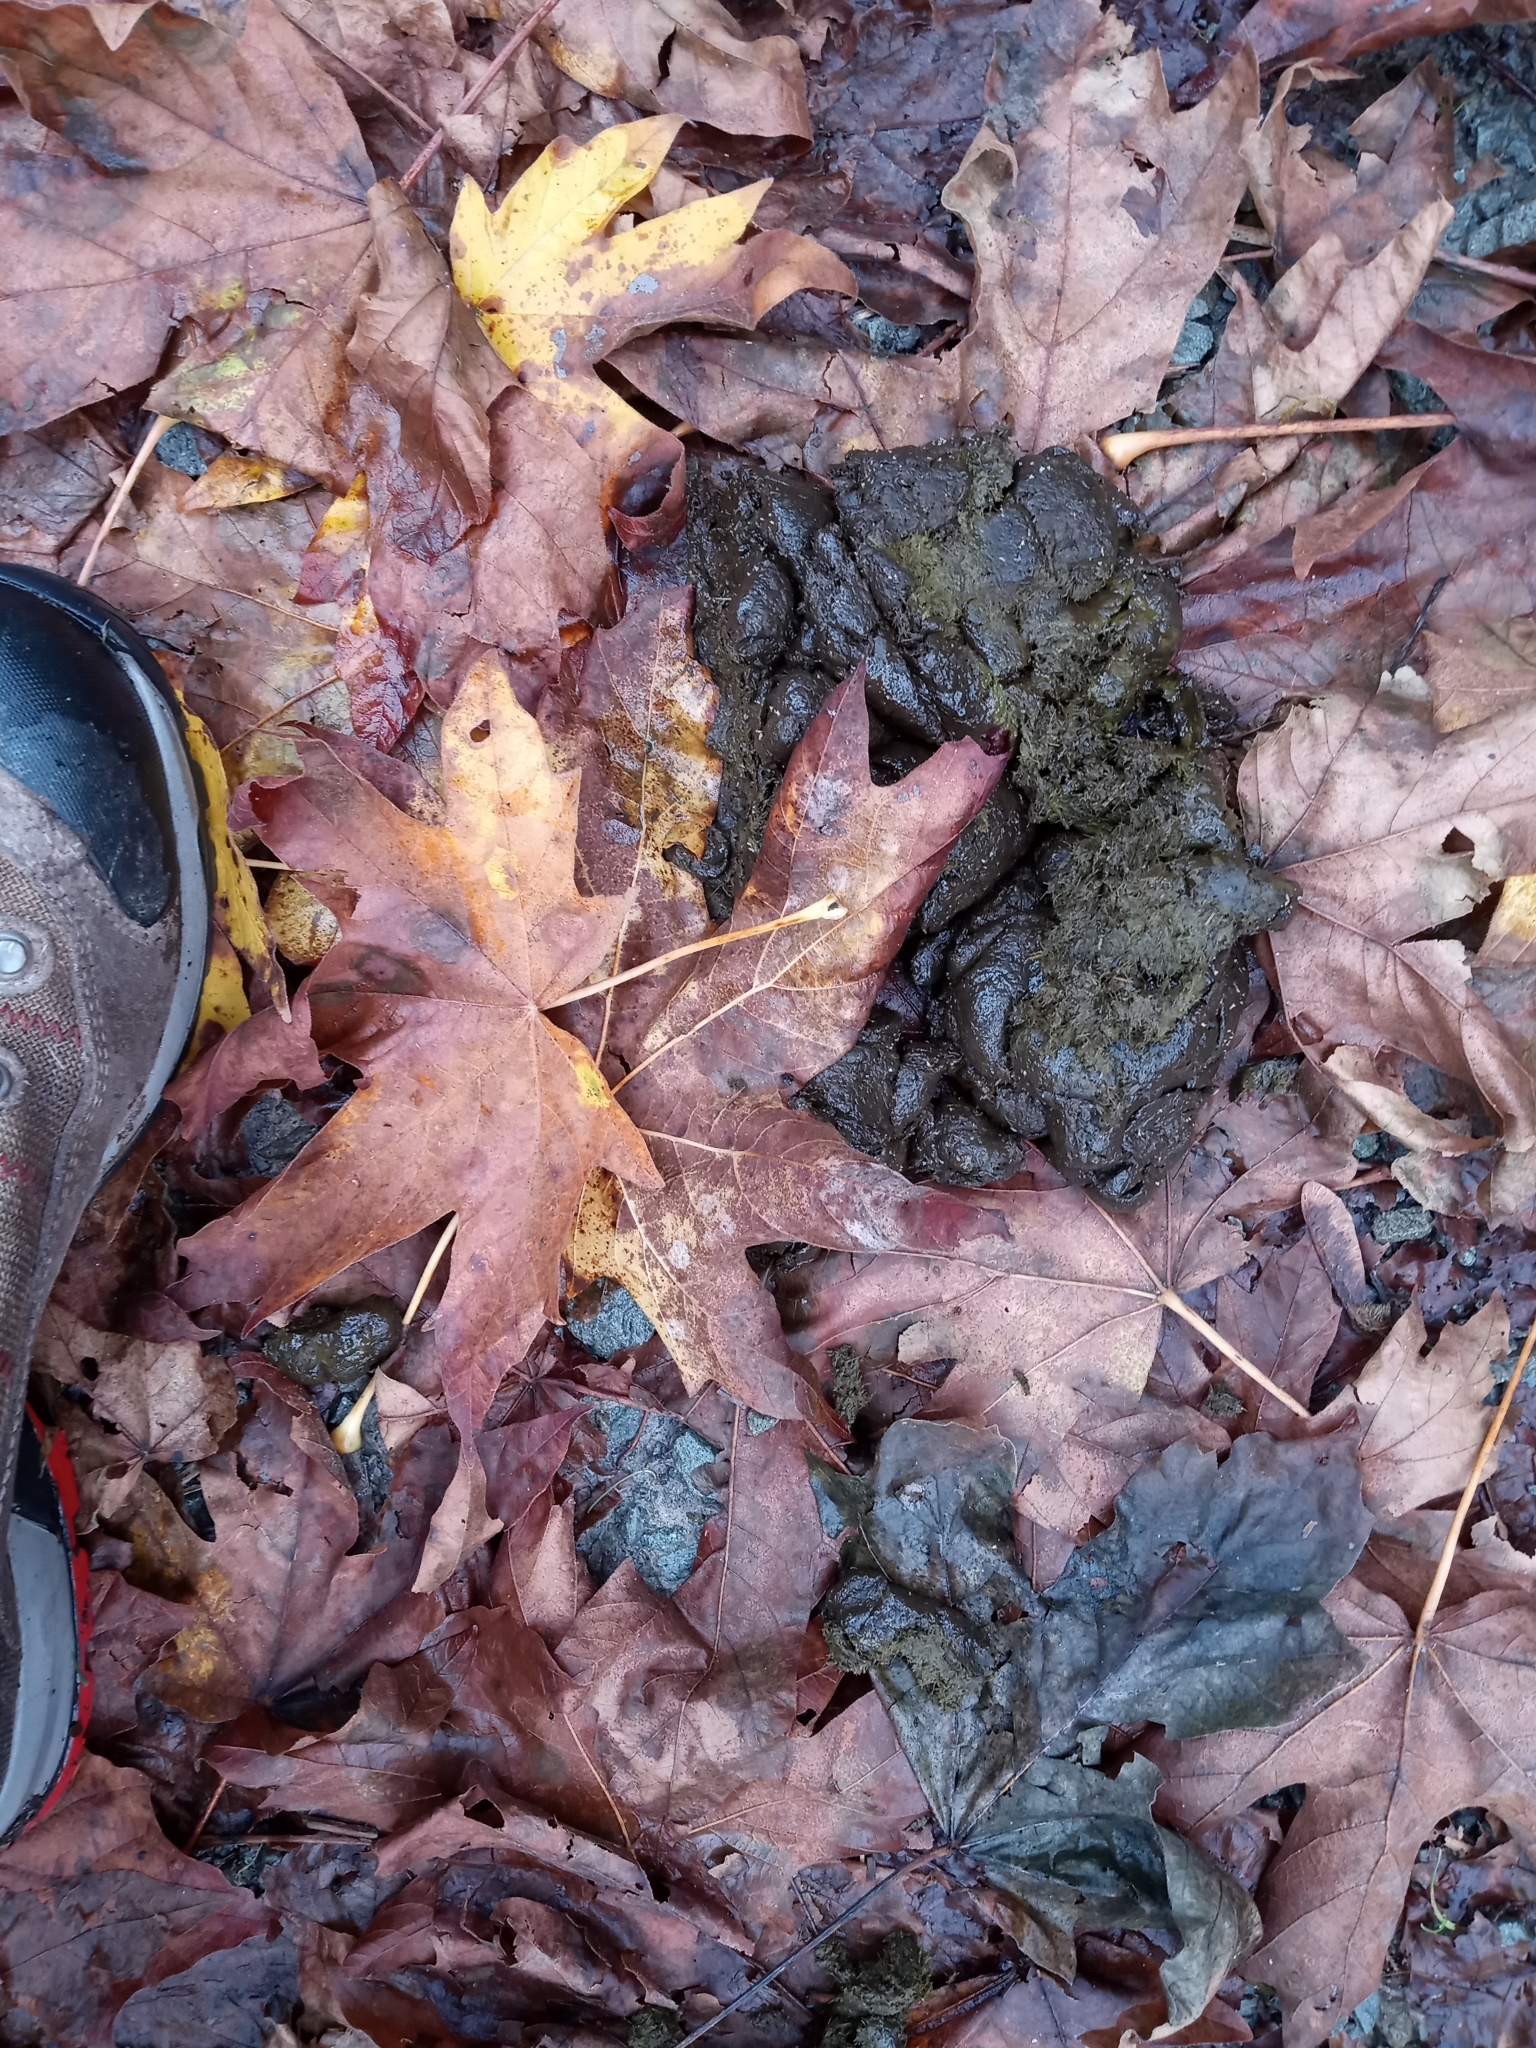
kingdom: Animalia
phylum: Chordata
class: Mammalia
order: Artiodactyla
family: Cervidae
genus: Cervus
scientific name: Cervus elaphus
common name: Red deer
